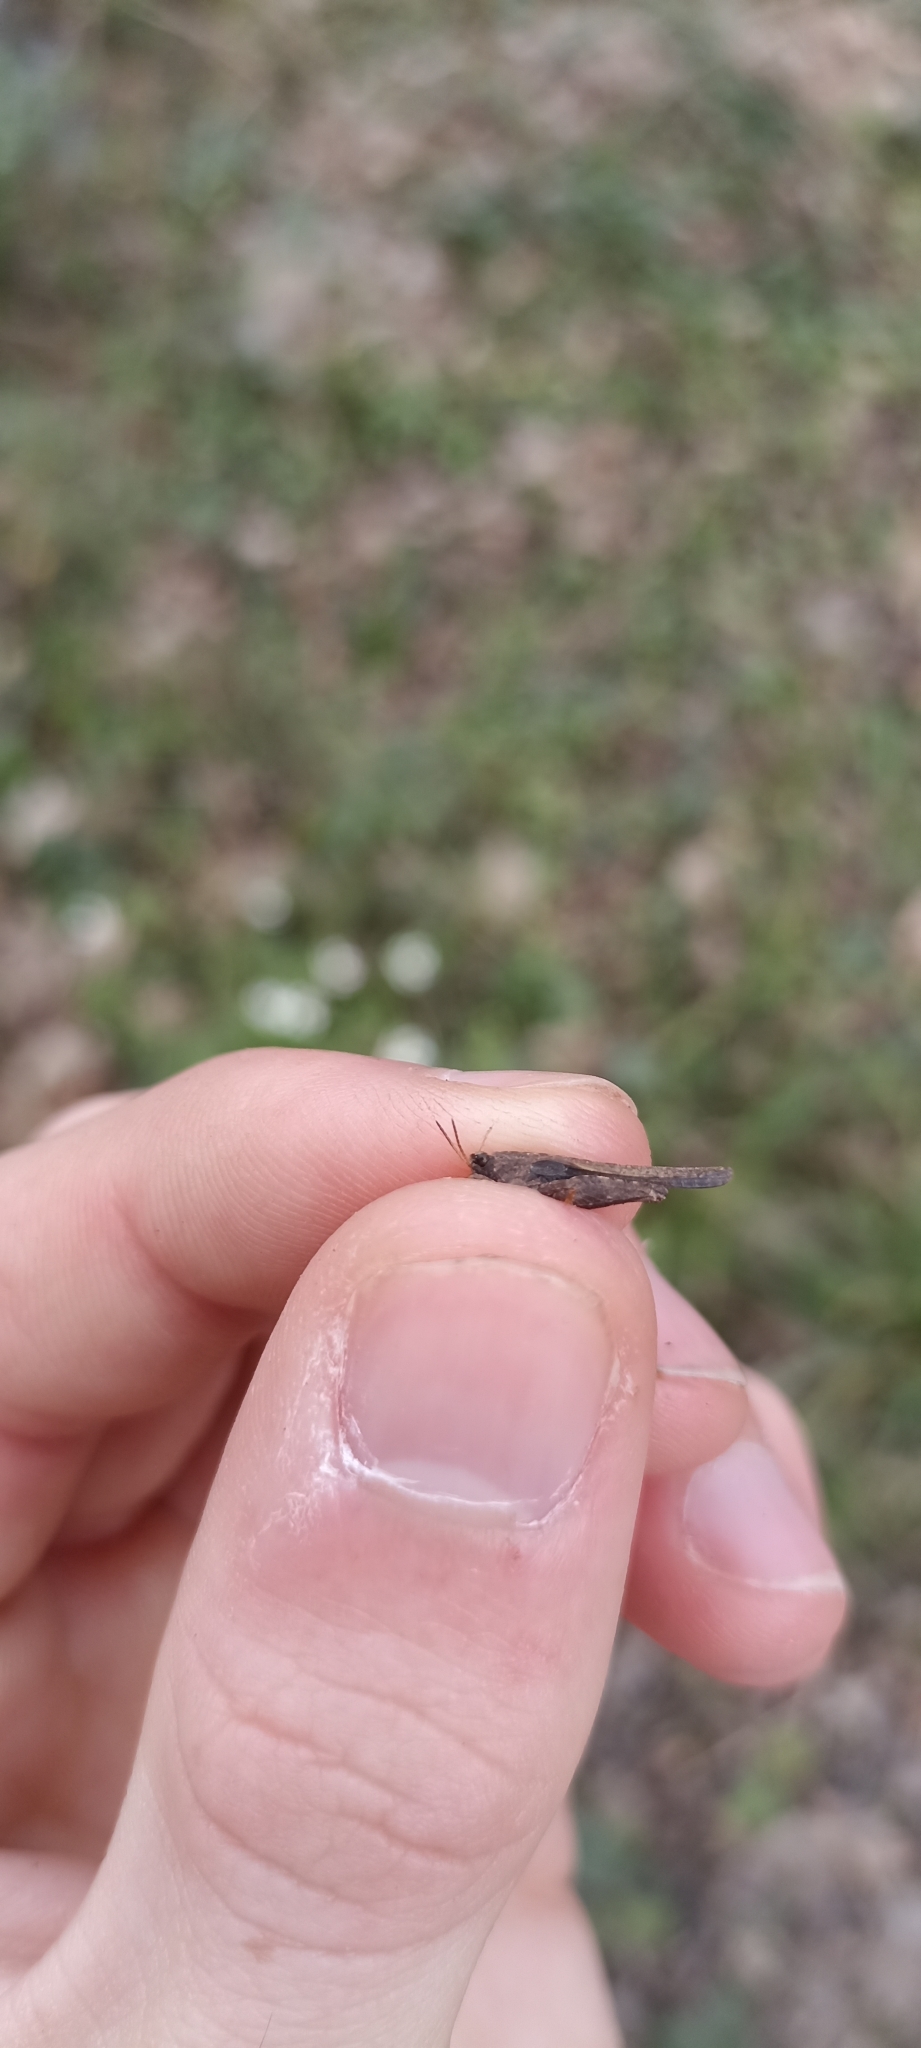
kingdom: Animalia
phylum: Arthropoda
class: Insecta
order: Orthoptera
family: Tetrigidae
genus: Tetrix
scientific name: Tetrix subulata
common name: Slender ground-hopper
